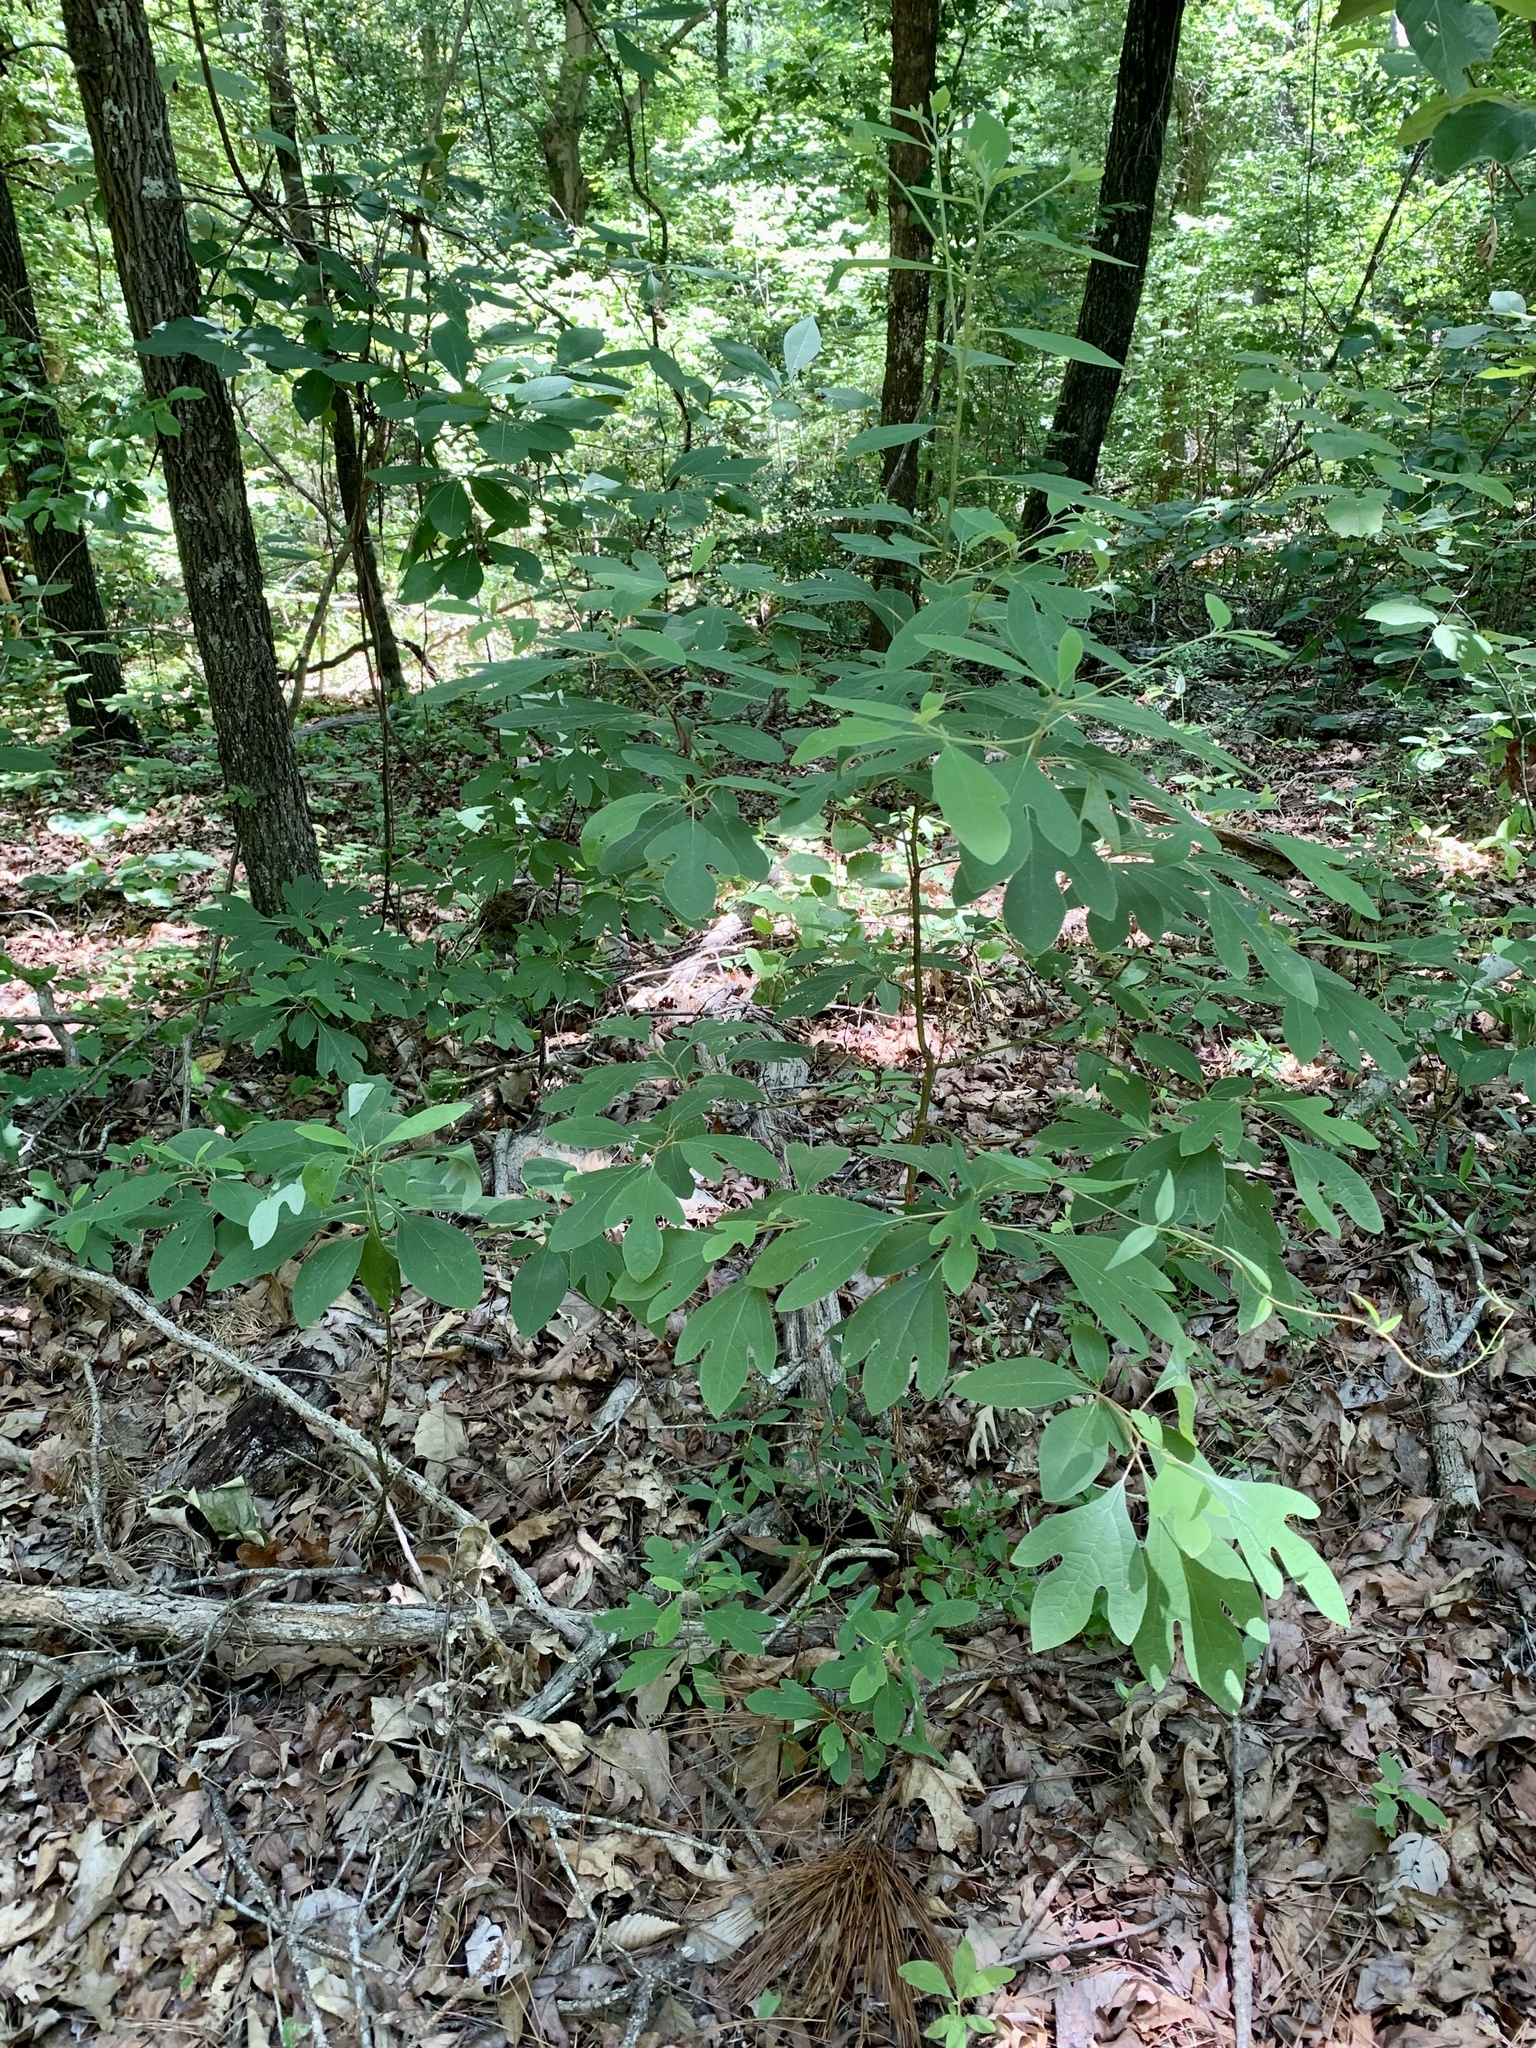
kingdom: Plantae
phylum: Tracheophyta
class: Magnoliopsida
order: Laurales
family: Lauraceae
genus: Sassafras
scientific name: Sassafras albidum
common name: Sassafras
